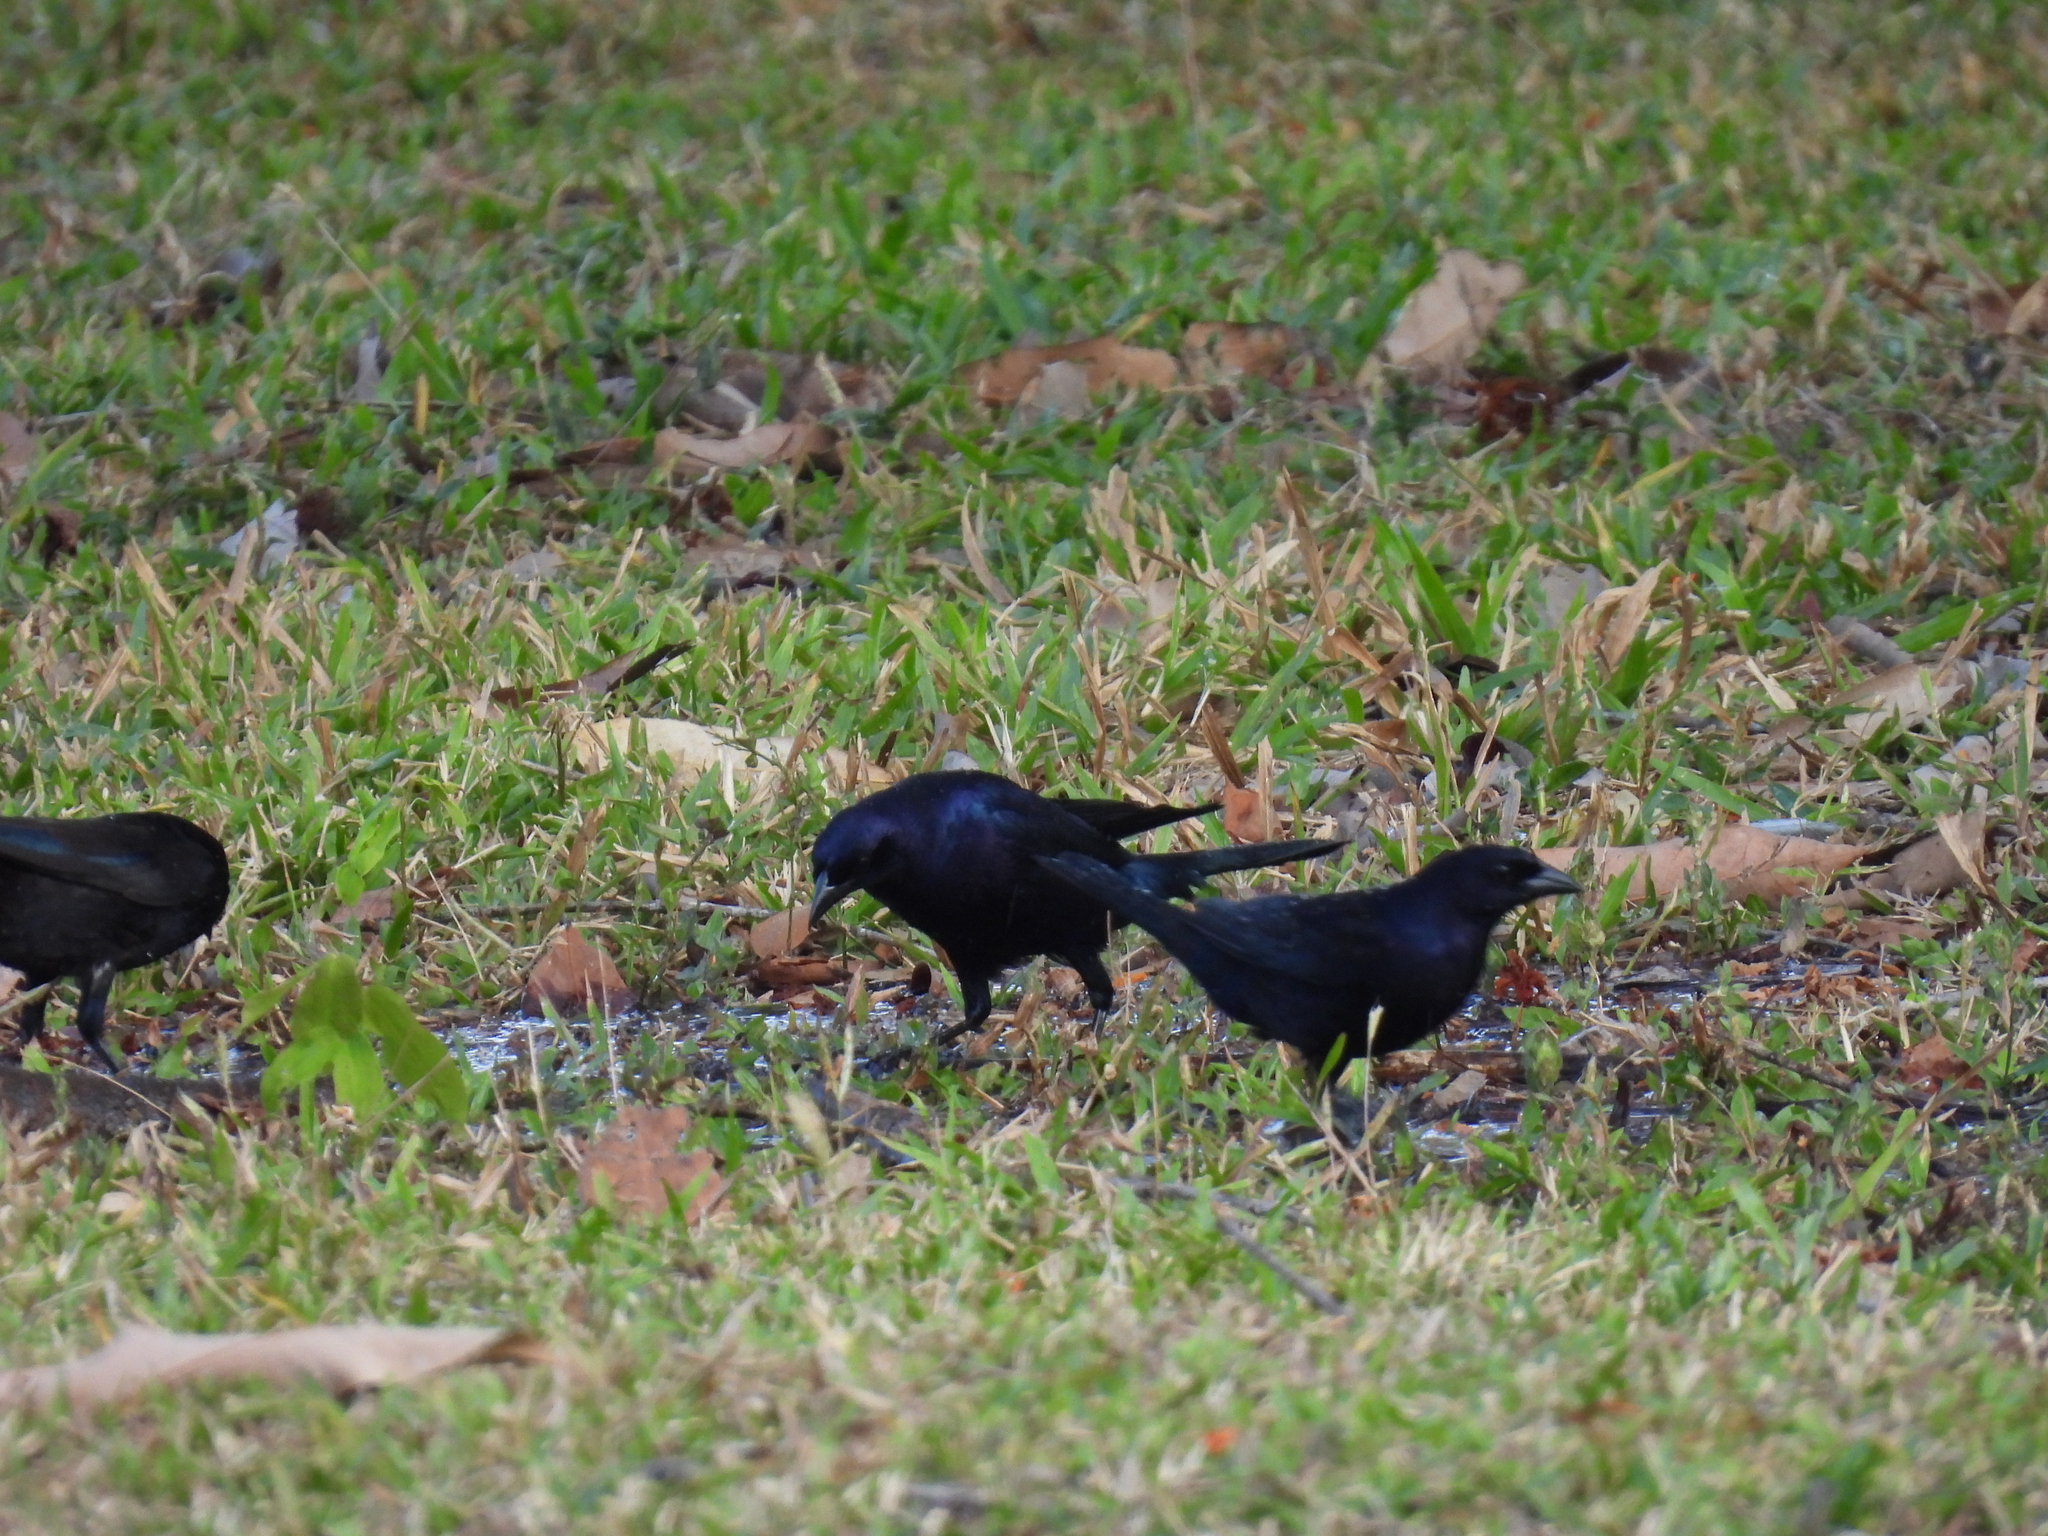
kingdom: Animalia
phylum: Chordata
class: Aves
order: Passeriformes
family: Icteridae
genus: Molothrus
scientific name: Molothrus bonariensis
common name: Shiny cowbird
